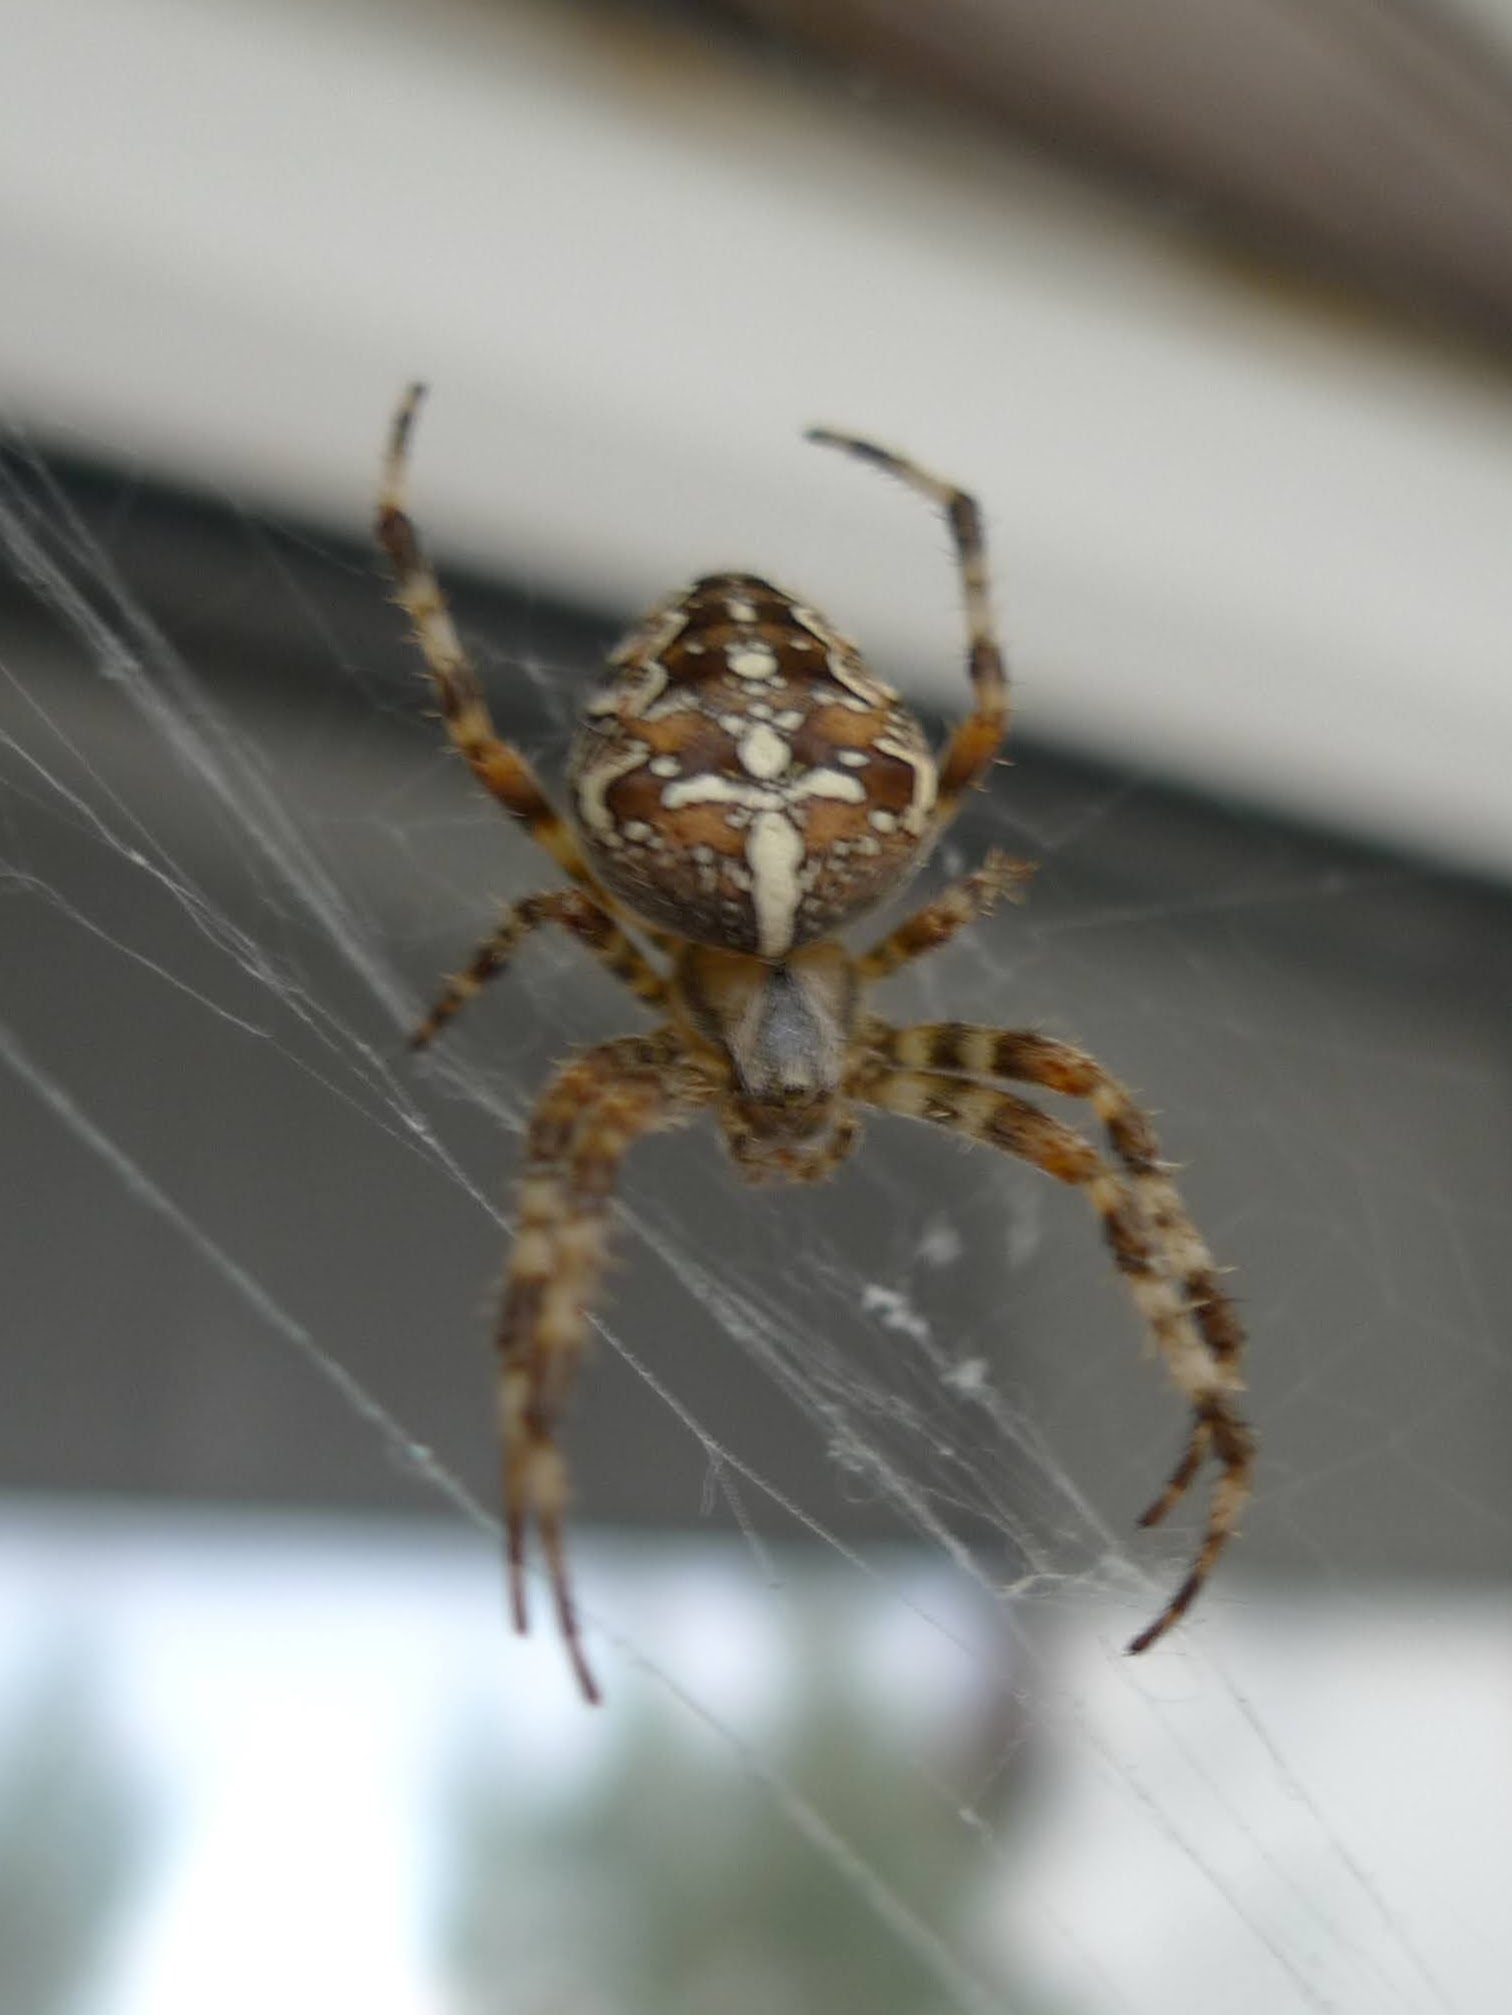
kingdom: Animalia
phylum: Arthropoda
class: Arachnida
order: Araneae
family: Araneidae
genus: Araneus
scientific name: Araneus diadematus
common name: Cross orbweaver
